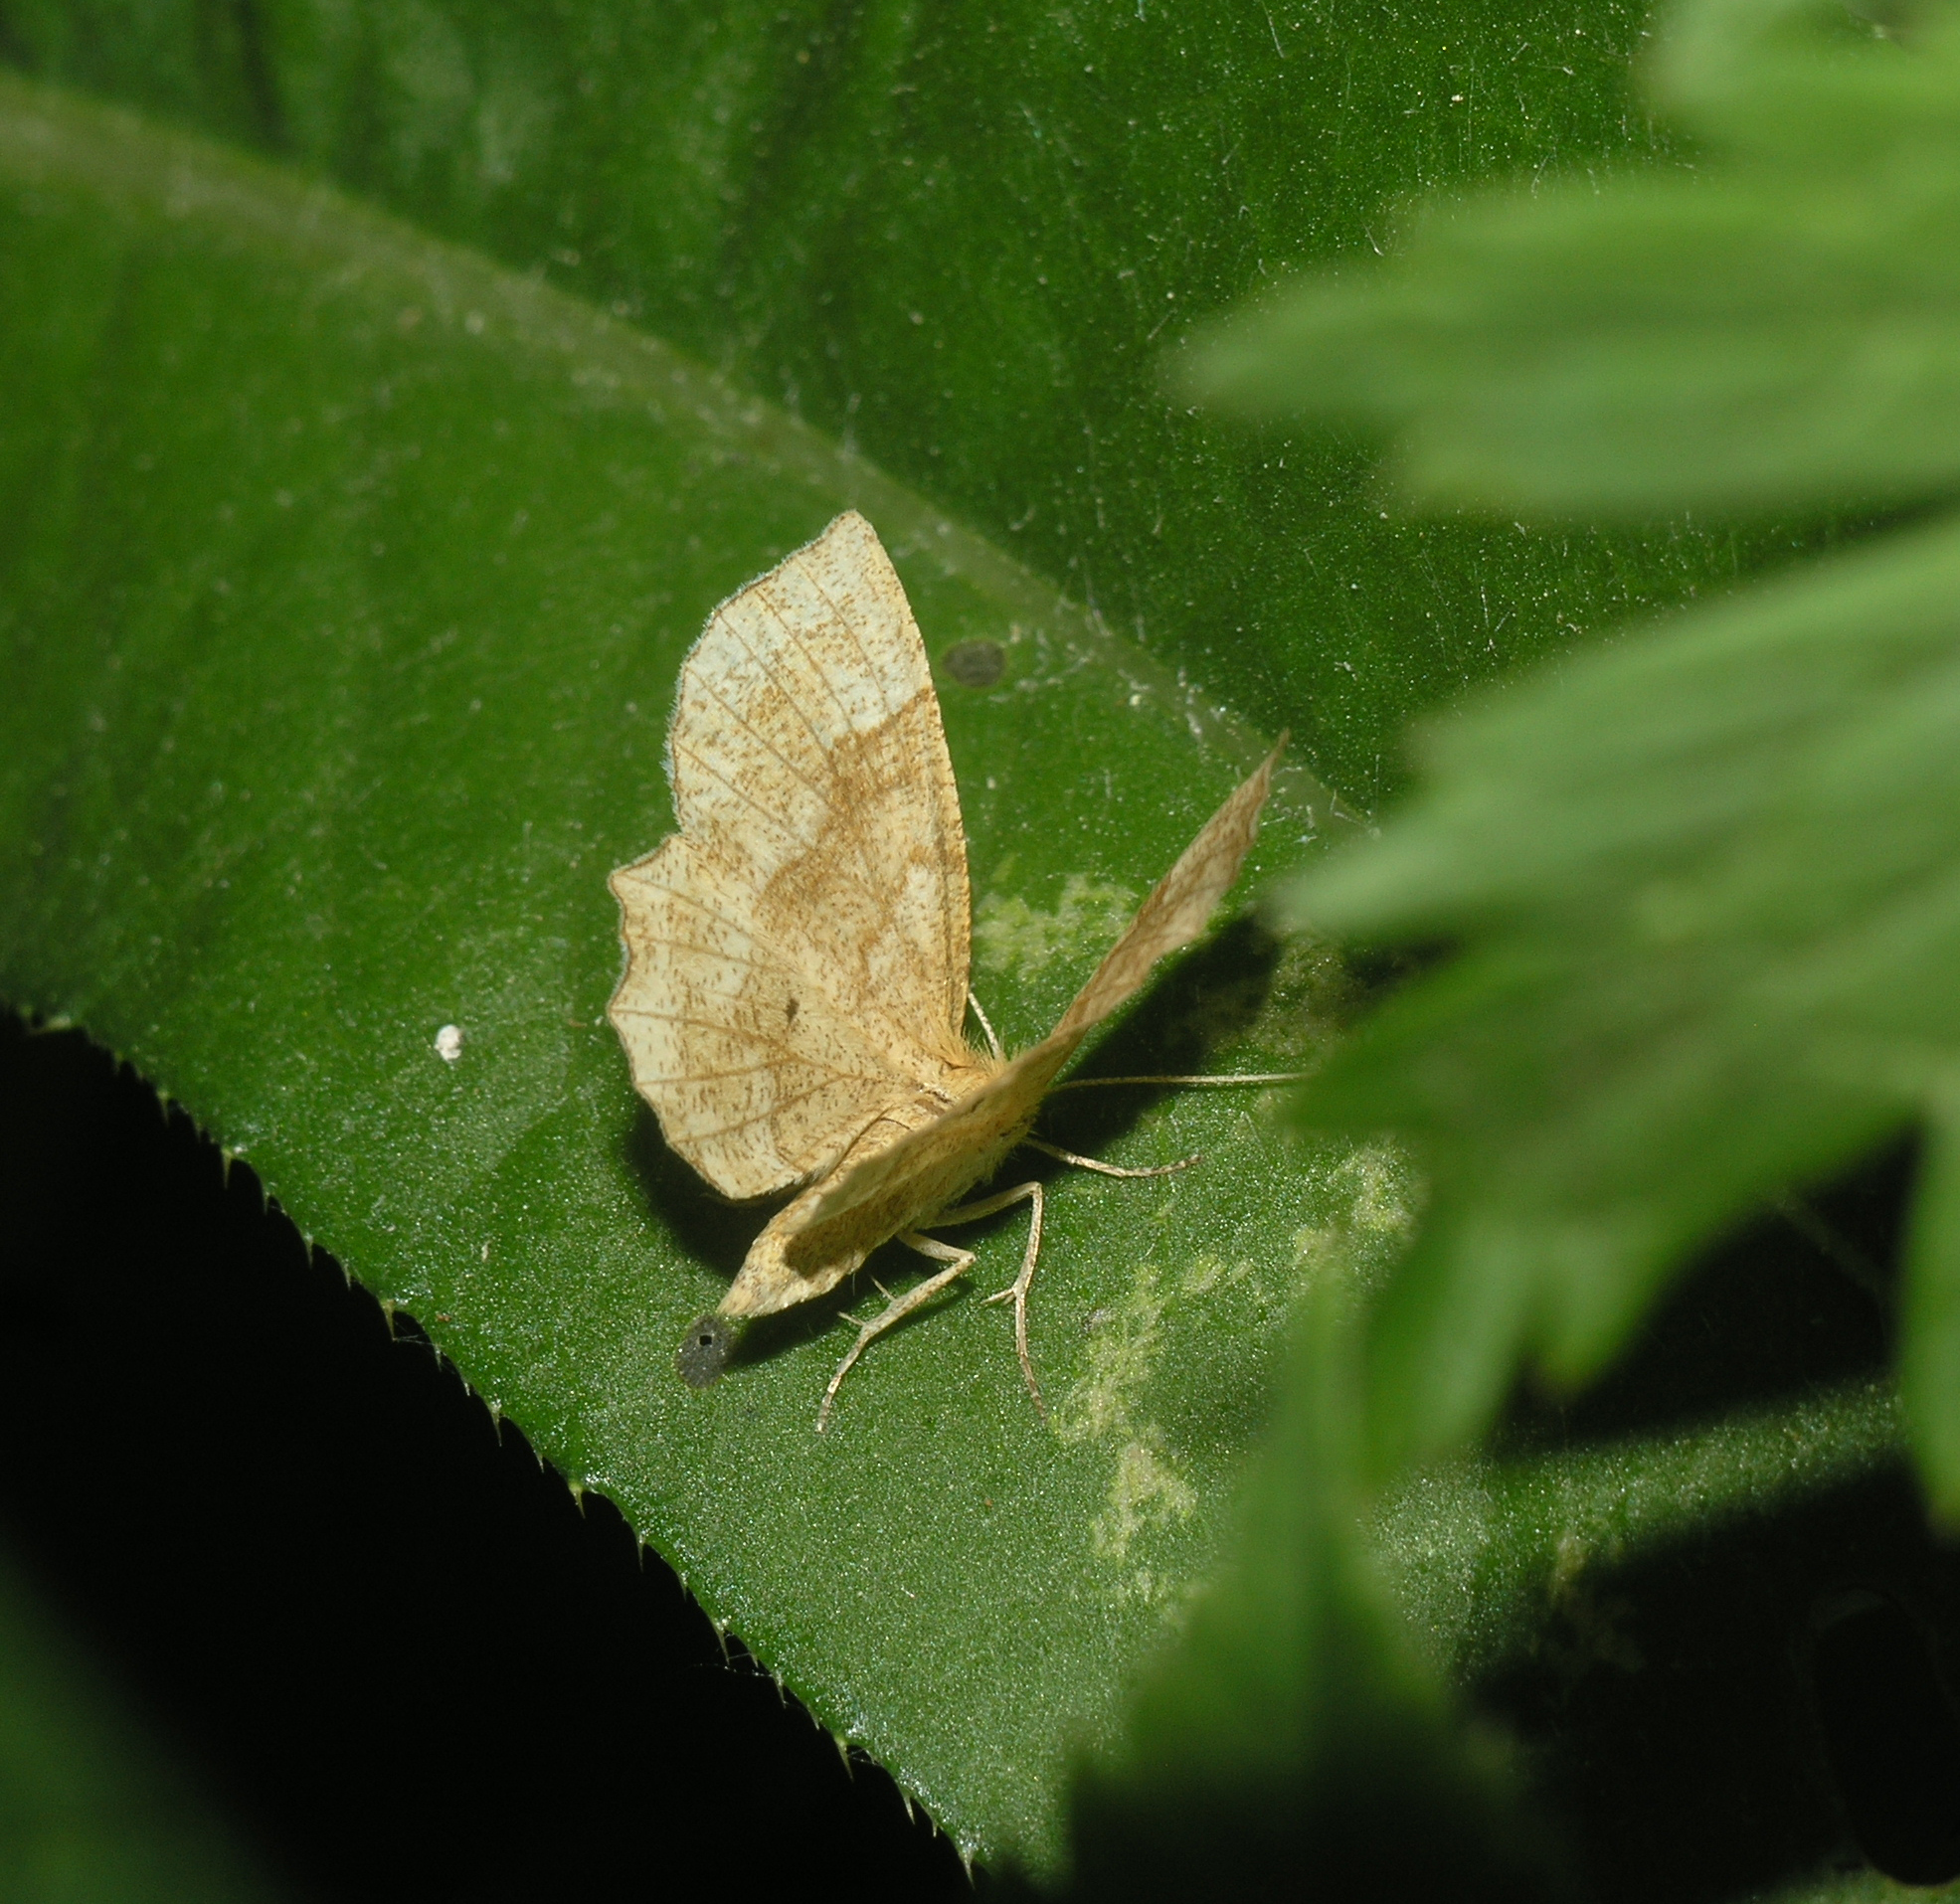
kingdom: Animalia
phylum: Arthropoda
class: Insecta
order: Lepidoptera
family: Geometridae
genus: Cepphis
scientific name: Cepphis advenaria
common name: Little thorn
